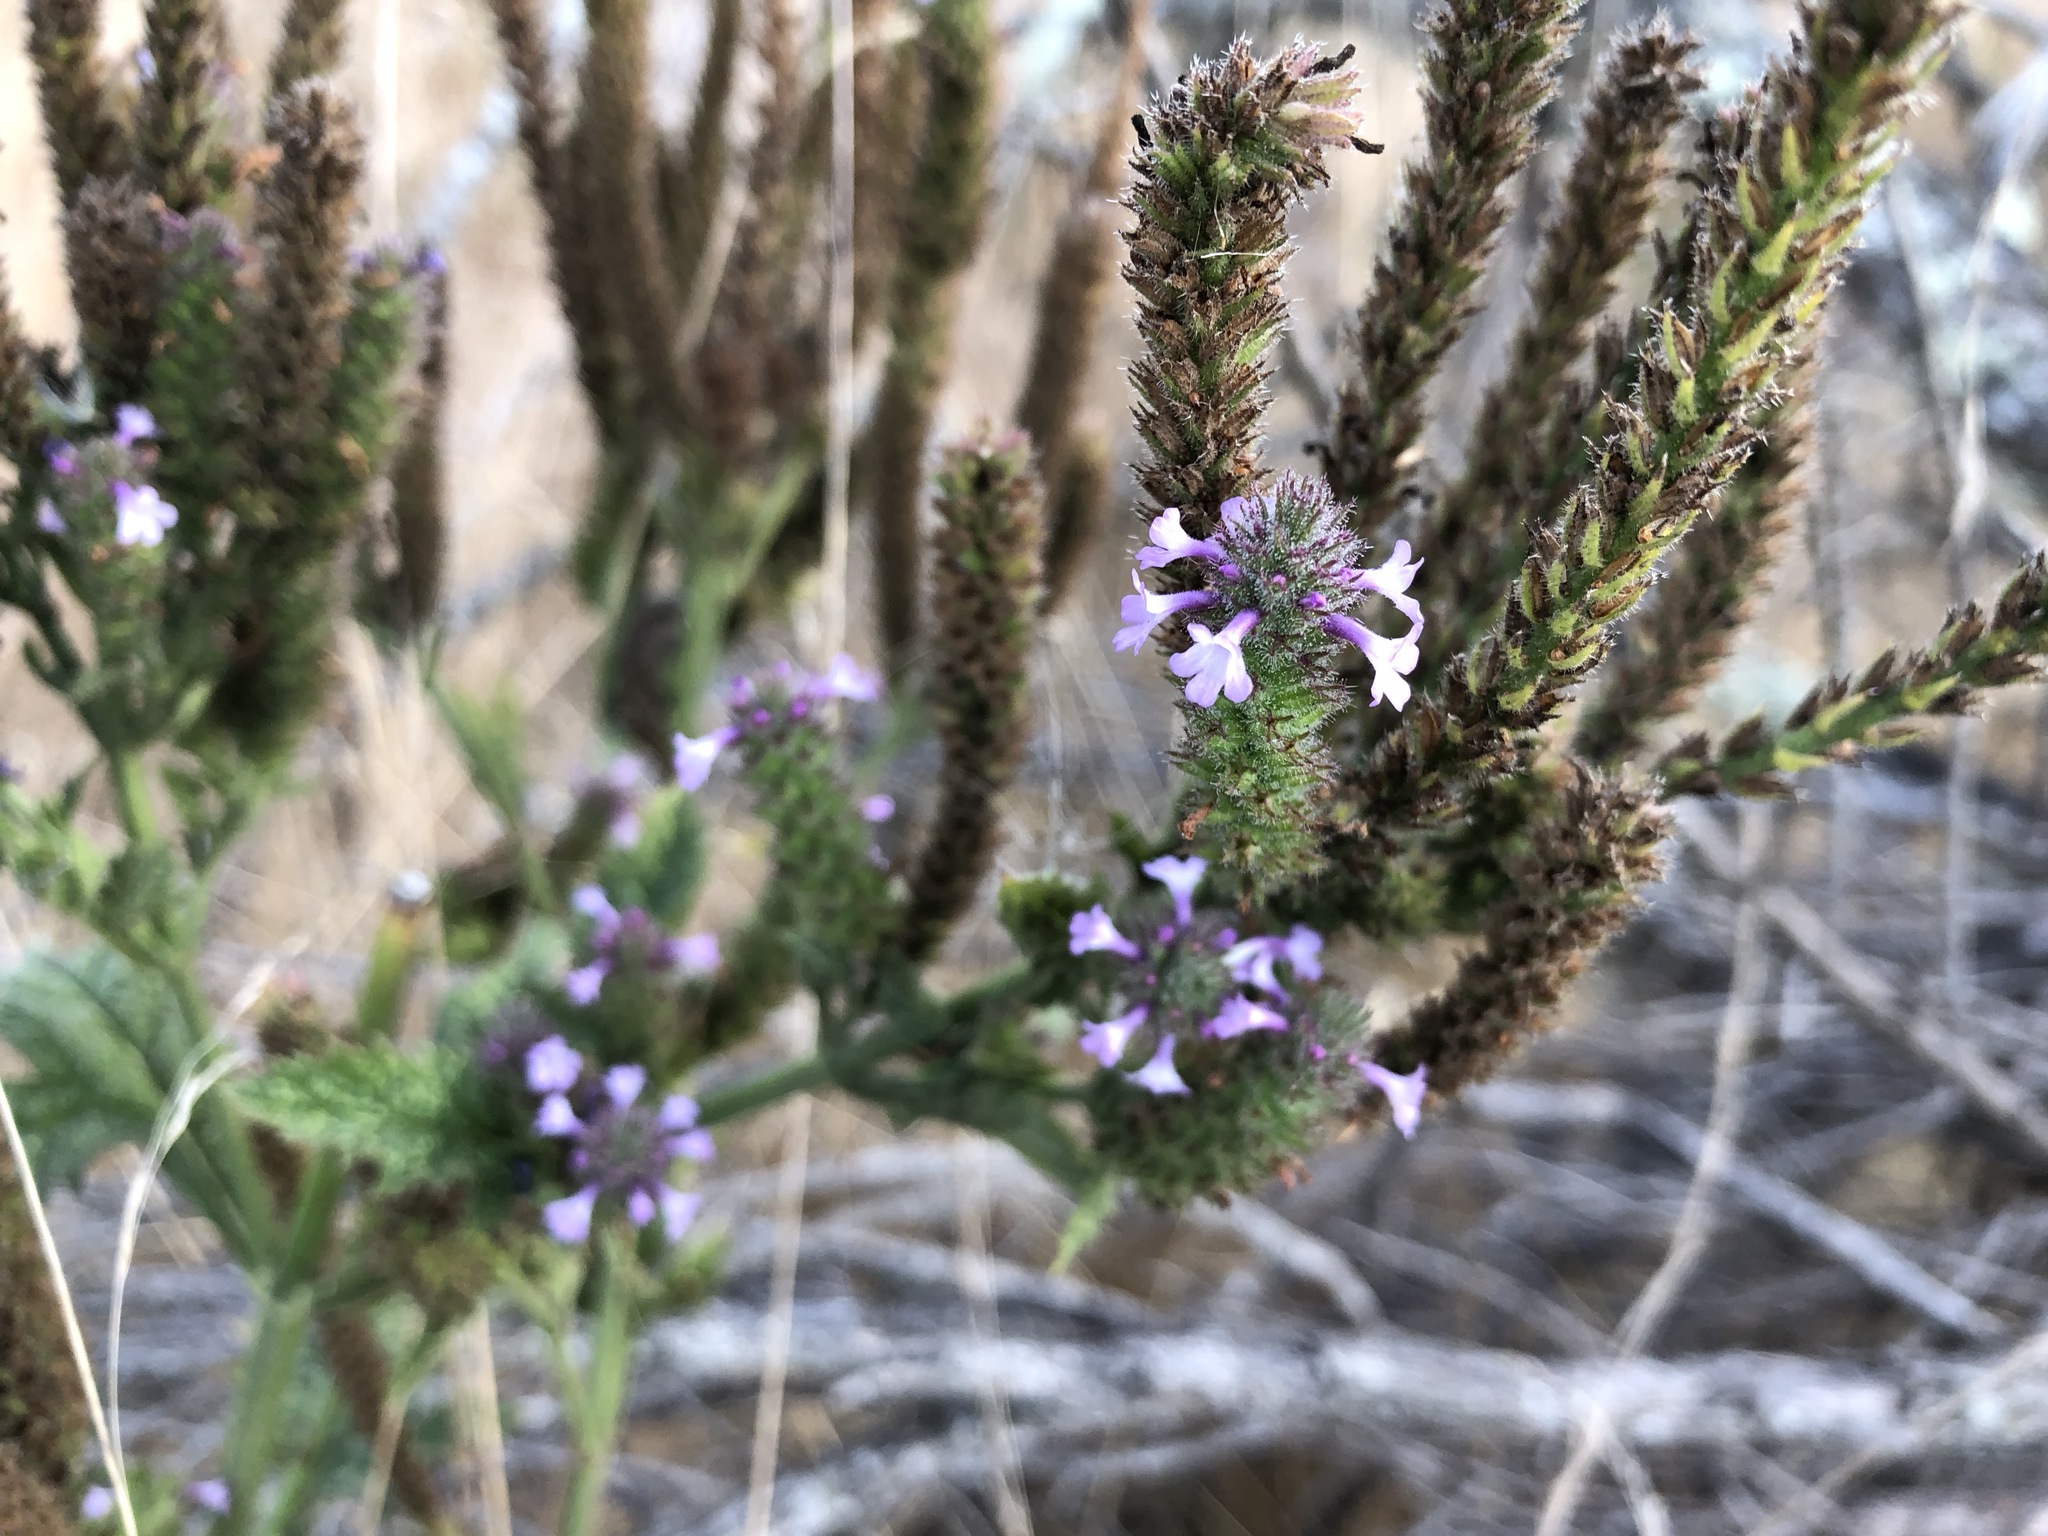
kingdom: Plantae
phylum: Tracheophyta
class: Magnoliopsida
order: Lamiales
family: Verbenaceae
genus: Verbena
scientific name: Verbena lasiostachys
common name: Vervain
